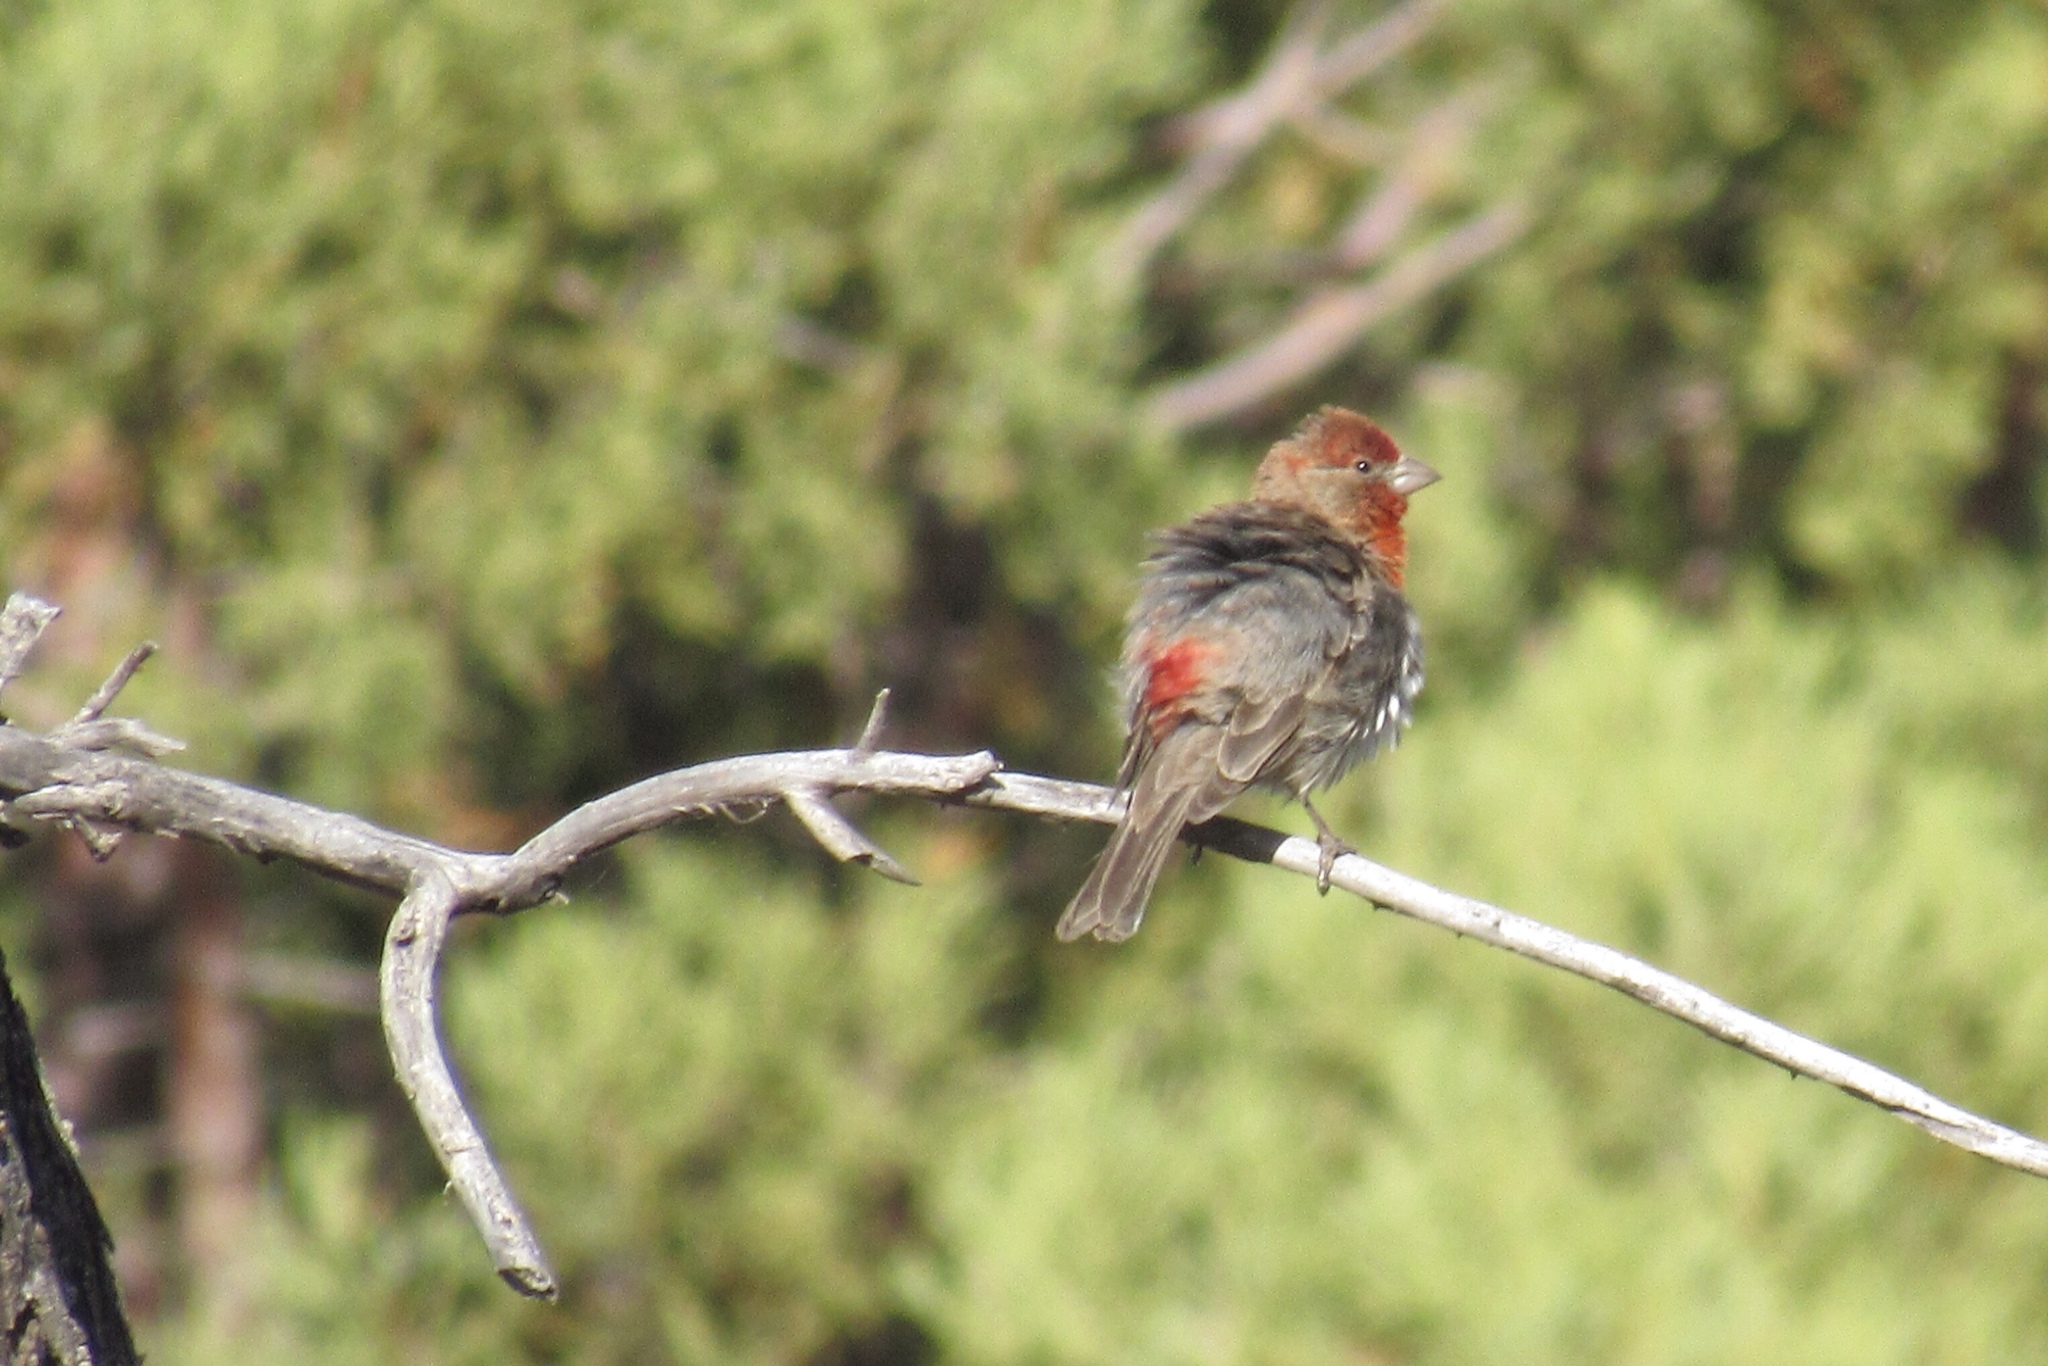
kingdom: Animalia
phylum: Chordata
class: Aves
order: Passeriformes
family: Fringillidae
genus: Haemorhous
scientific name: Haemorhous mexicanus
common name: House finch
